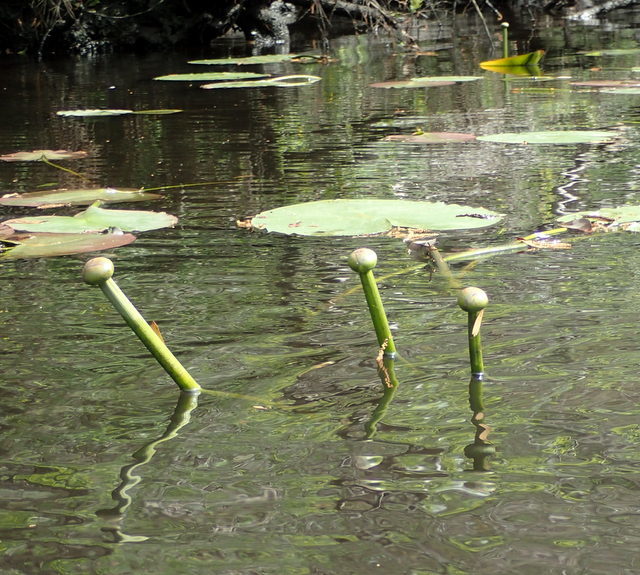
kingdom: Plantae
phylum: Tracheophyta
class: Magnoliopsida
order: Nymphaeales
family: Nymphaeaceae
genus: Nuphar
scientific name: Nuphar advena
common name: Spatter-dock
